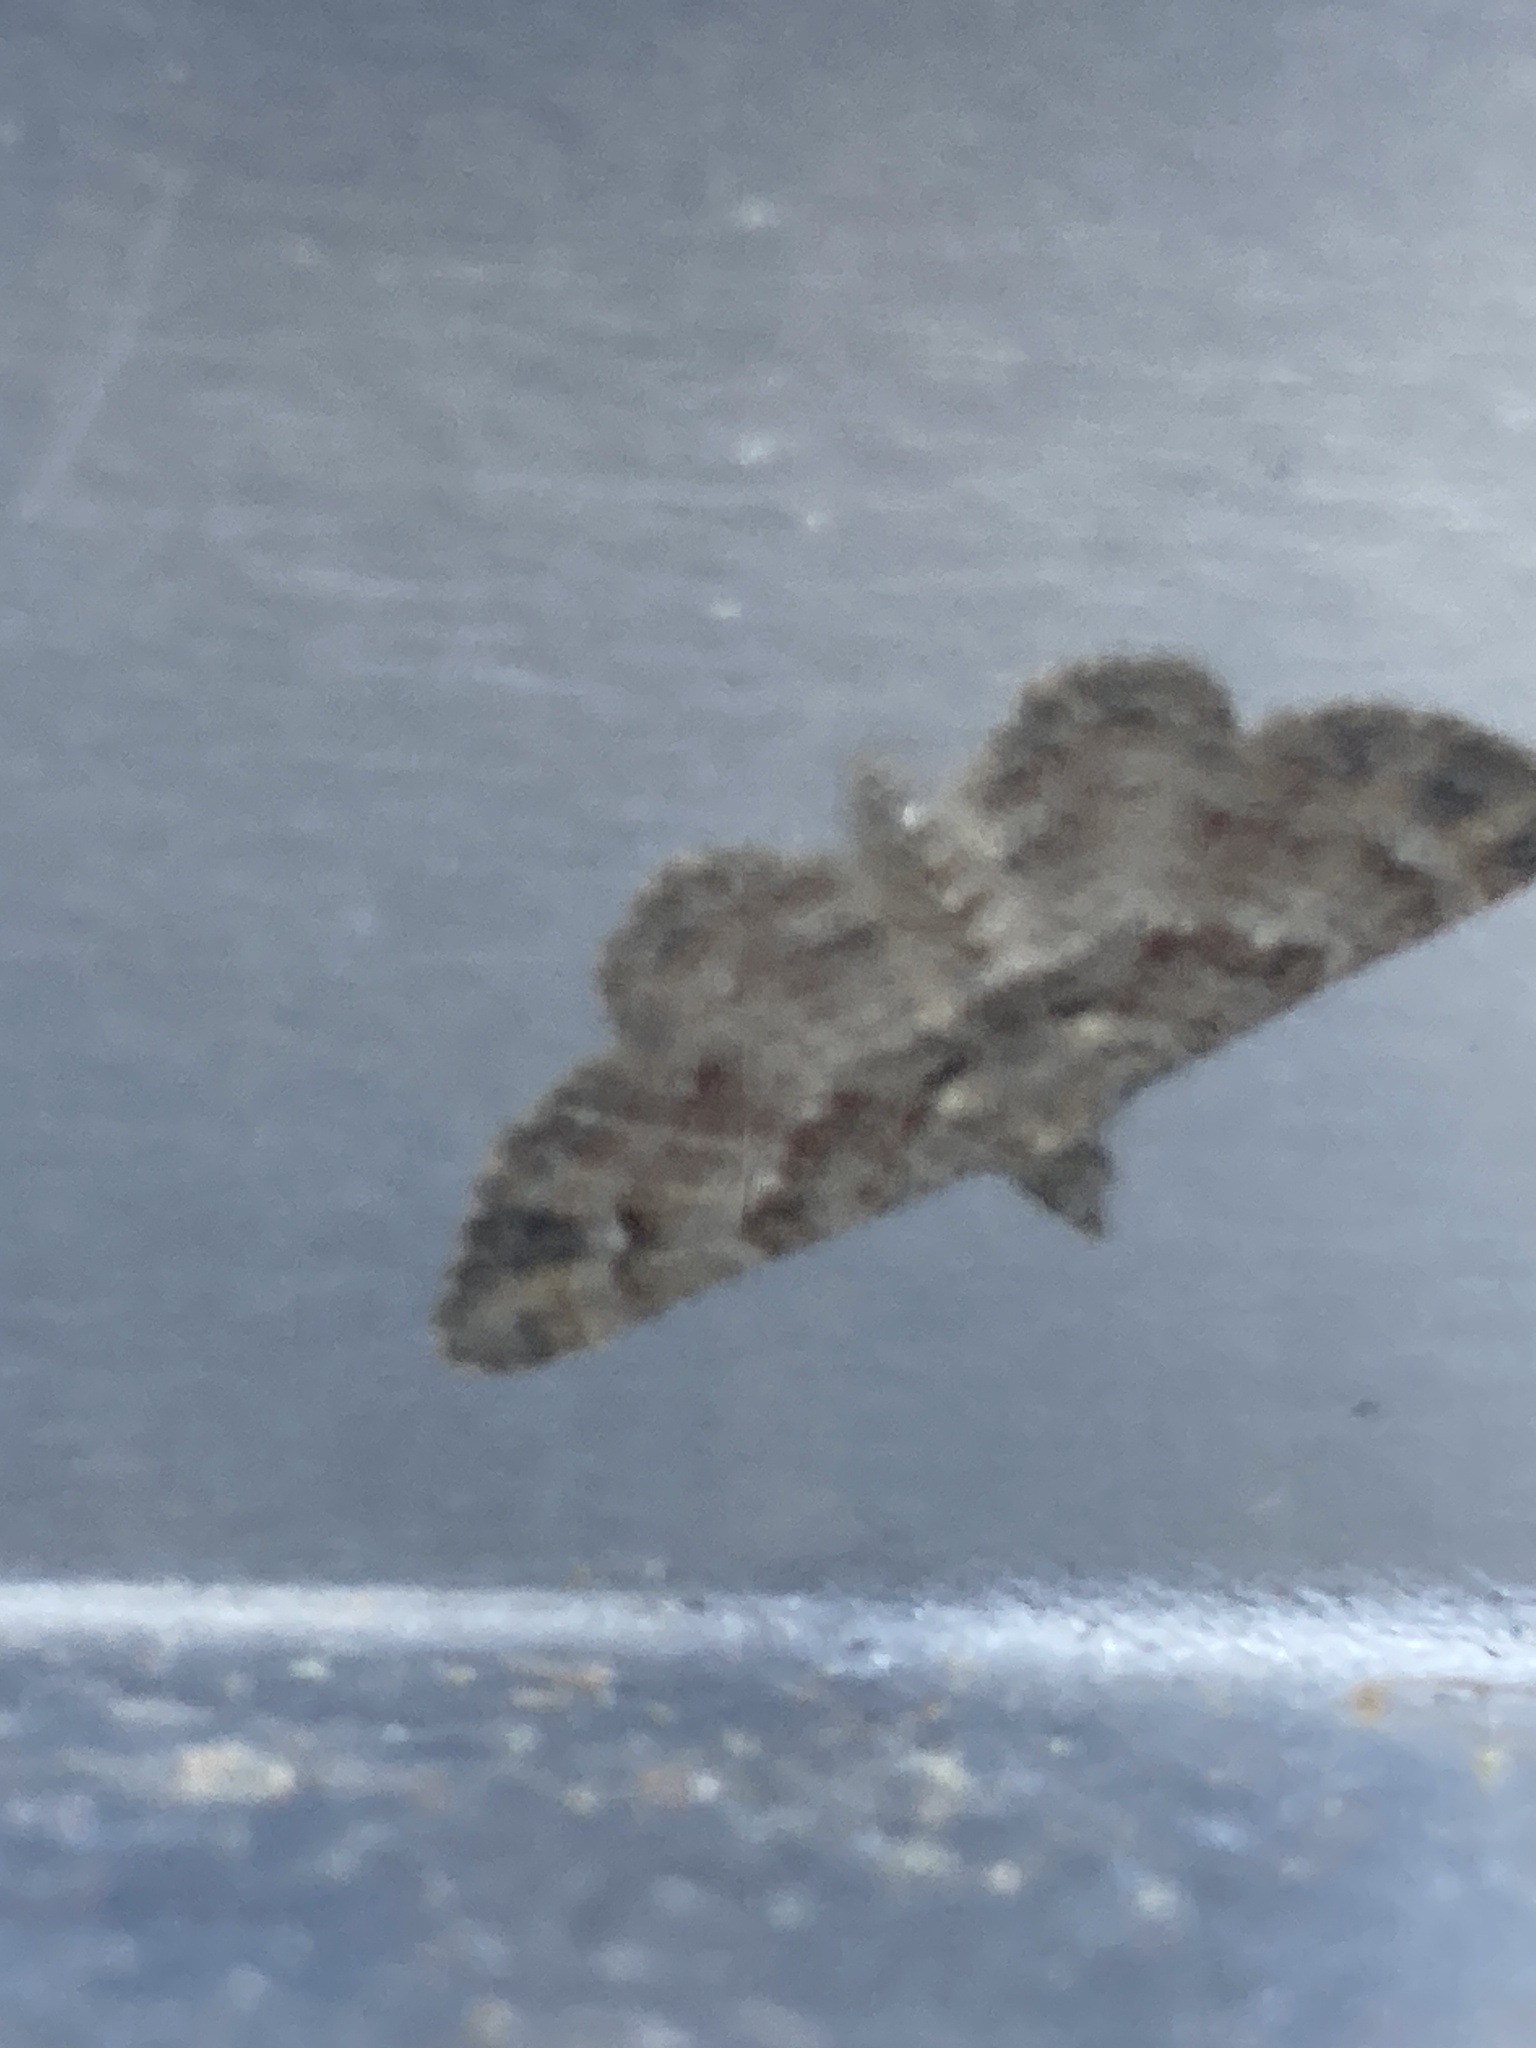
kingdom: Animalia
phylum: Arthropoda
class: Insecta
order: Lepidoptera
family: Geometridae
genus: Gymnoscelis
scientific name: Gymnoscelis rufifasciata
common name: Double-striped pug
